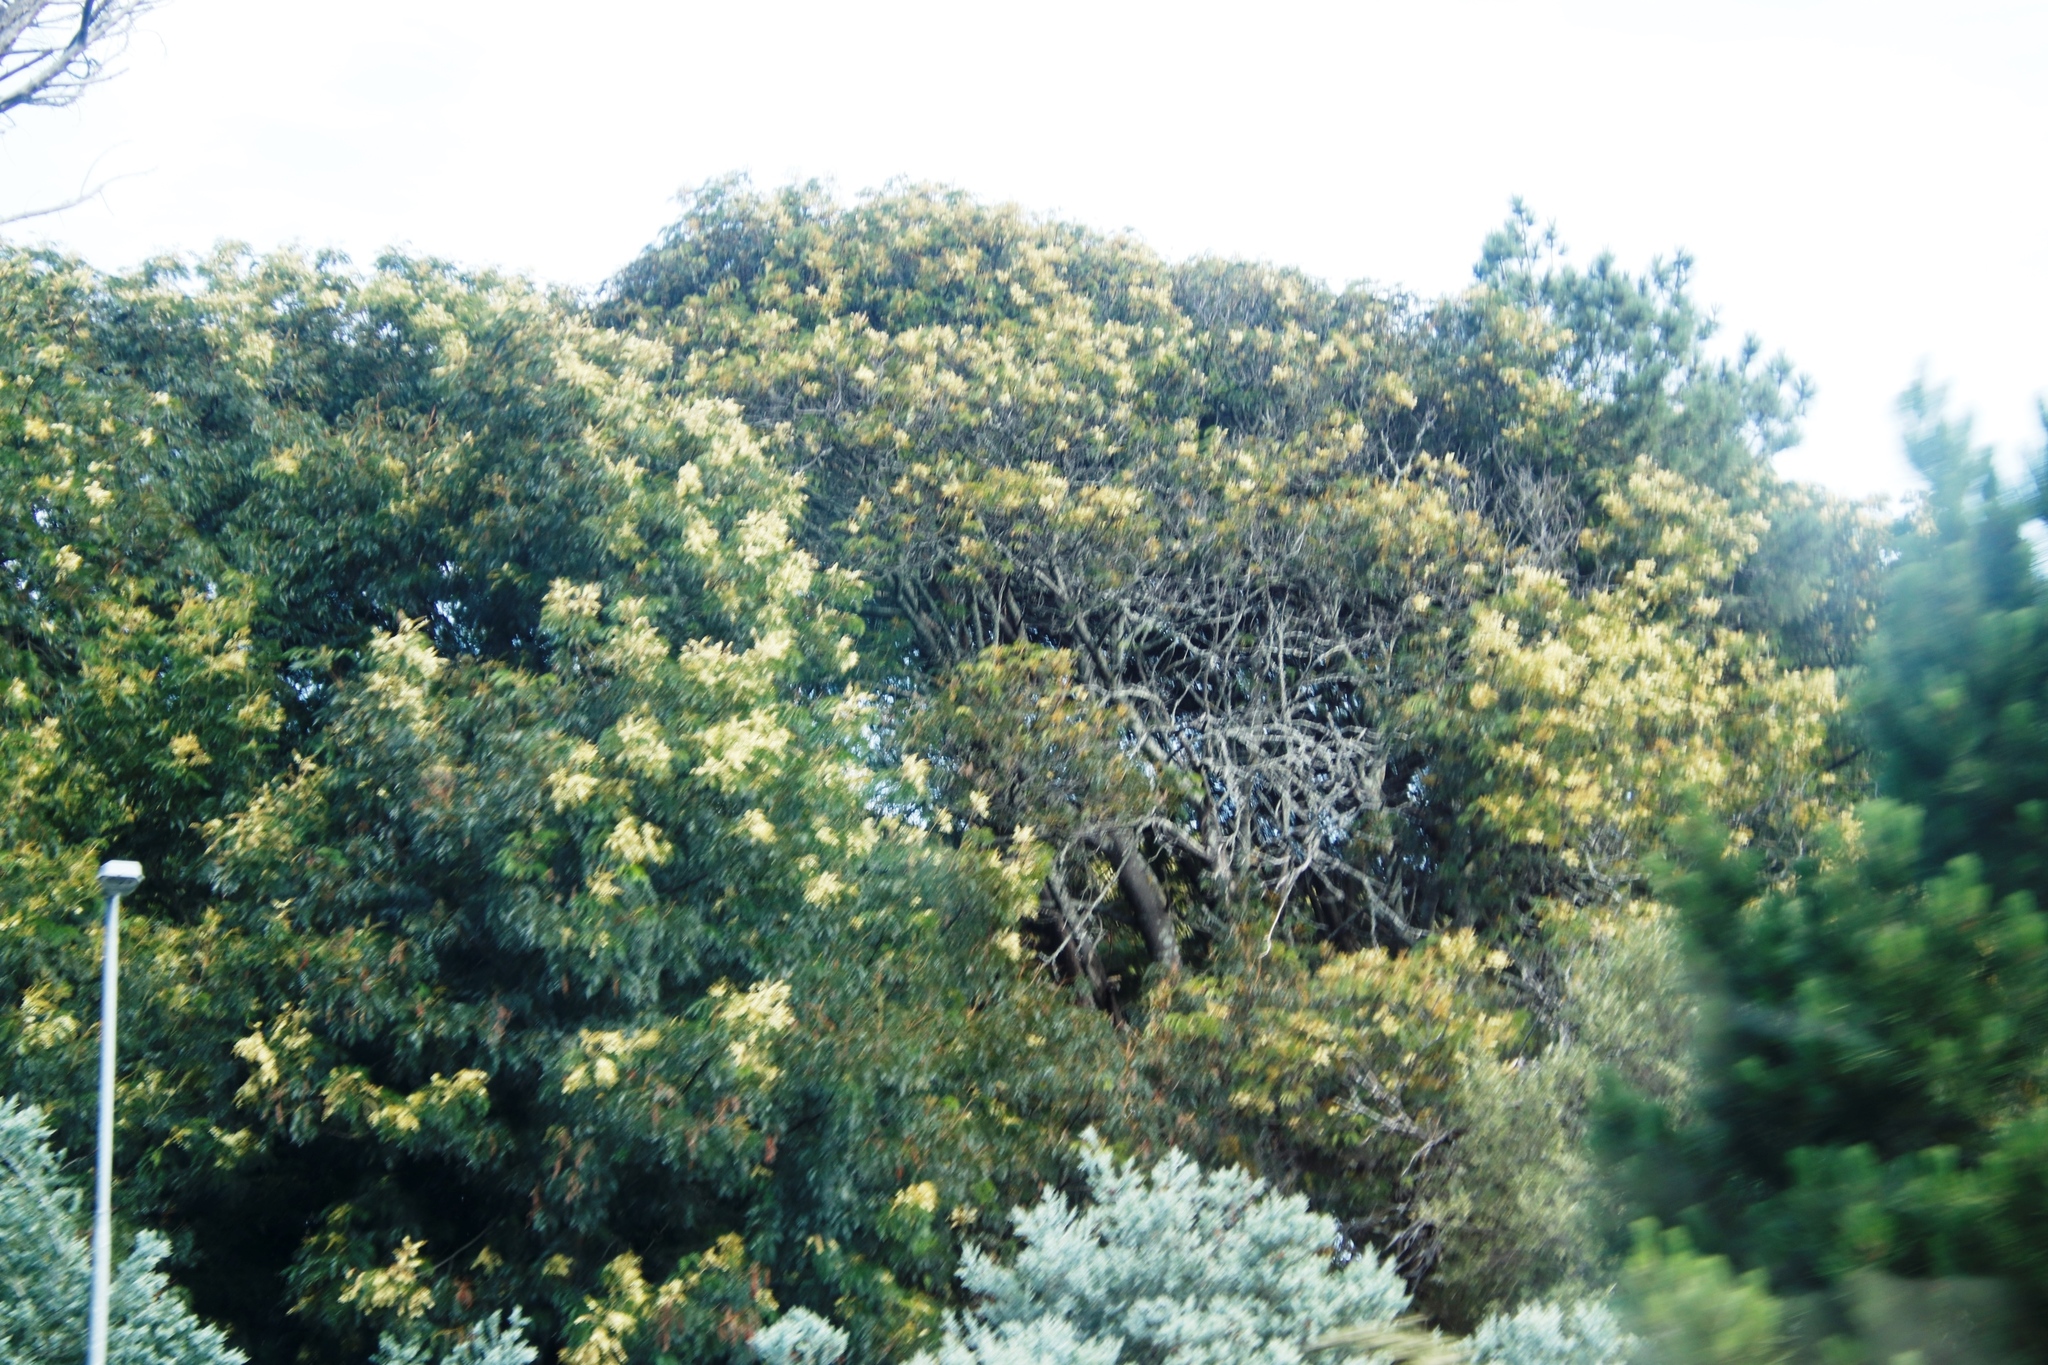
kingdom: Plantae
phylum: Tracheophyta
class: Magnoliopsida
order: Fabales
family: Fabaceae
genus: Acacia
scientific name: Acacia elata
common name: Cedar wattle
